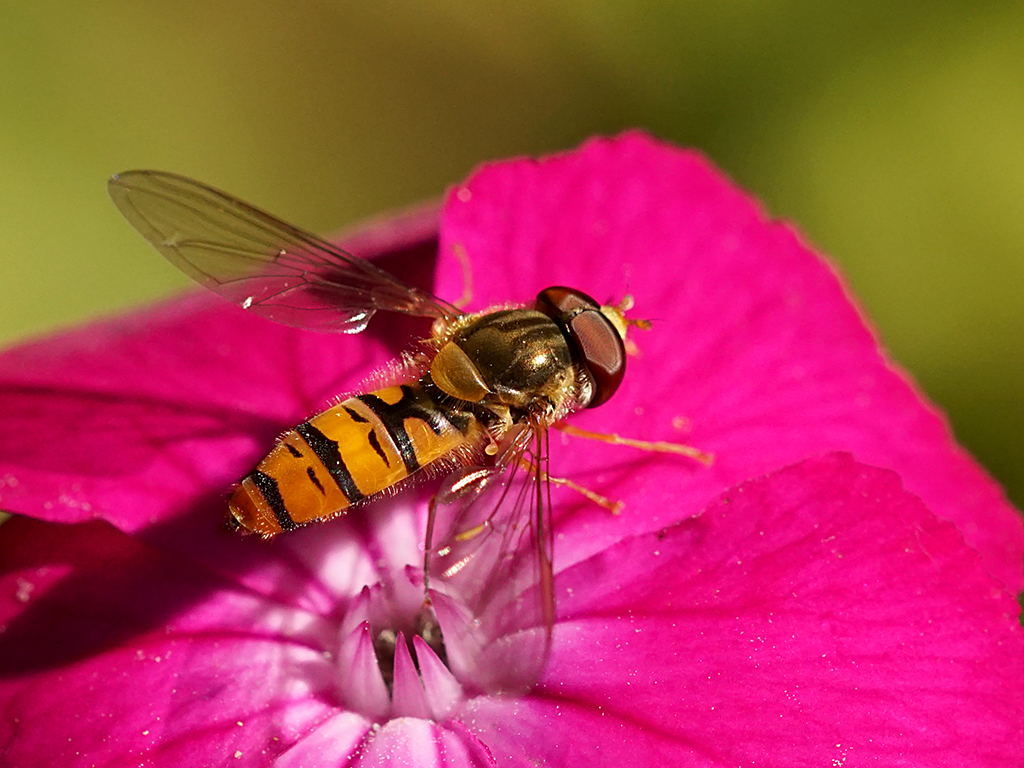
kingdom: Animalia
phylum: Arthropoda
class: Insecta
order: Diptera
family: Syrphidae
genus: Episyrphus
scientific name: Episyrphus balteatus
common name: Marmalade hoverfly
